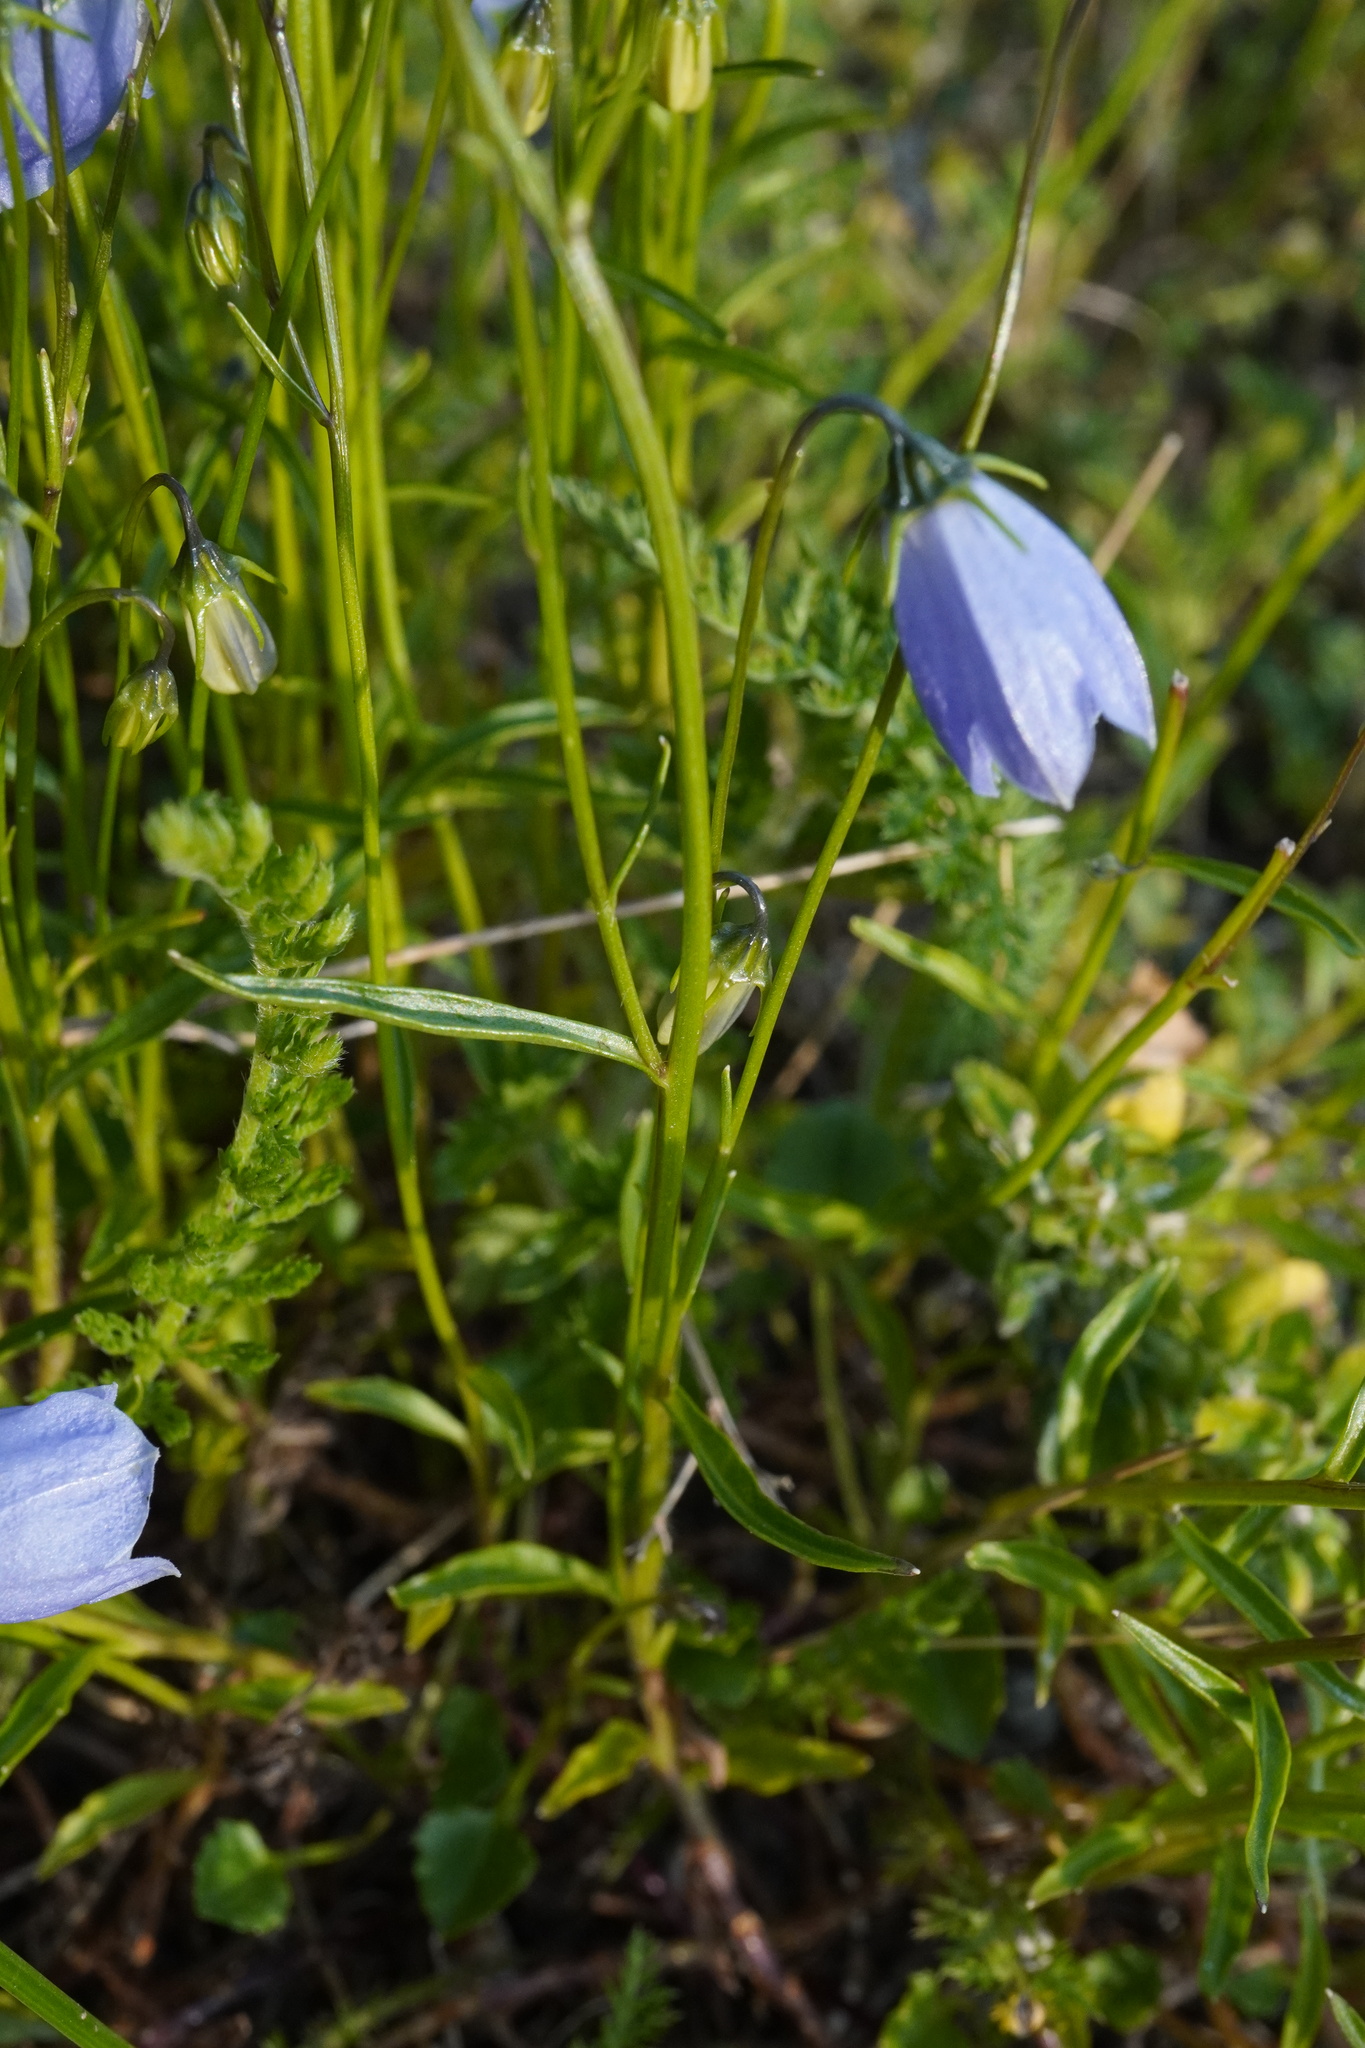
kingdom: Plantae
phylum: Tracheophyta
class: Magnoliopsida
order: Asterales
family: Campanulaceae
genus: Campanula
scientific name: Campanula cochleariifolia
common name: Fairies'-thimbles
